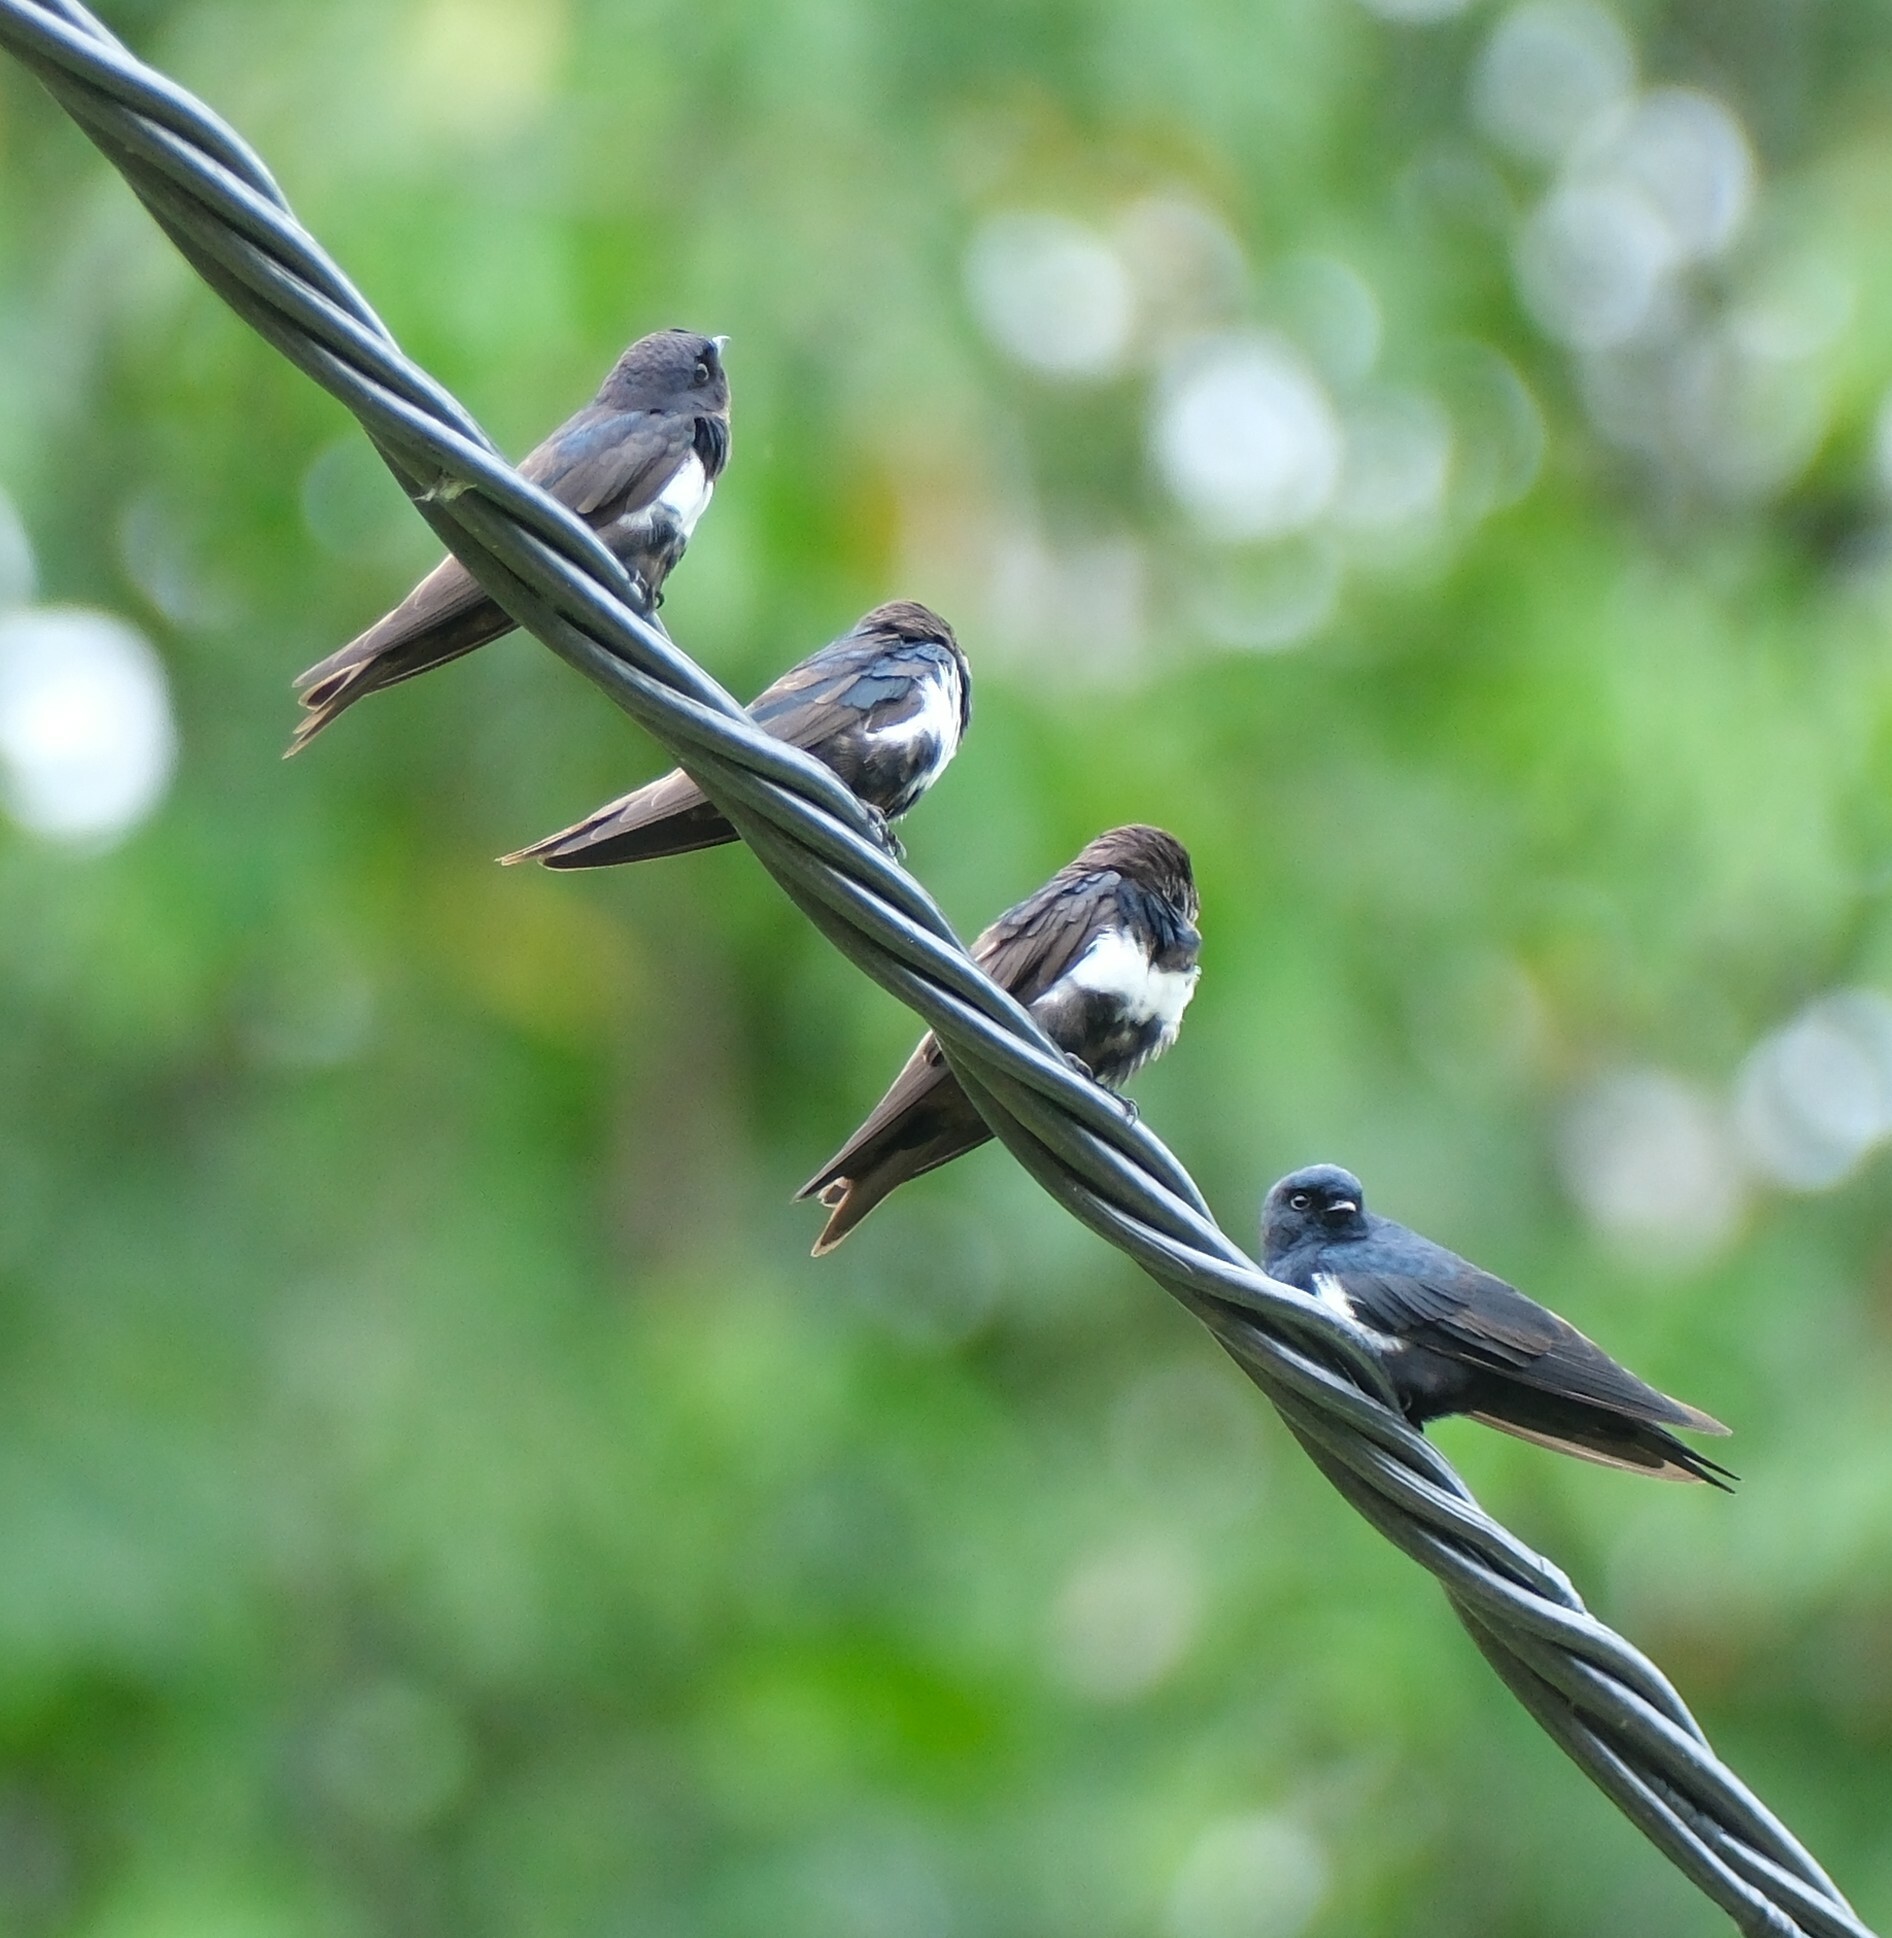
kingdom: Animalia
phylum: Chordata
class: Aves
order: Passeriformes
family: Hirundinidae
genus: Atticora
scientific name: Atticora fasciata
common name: White-banded swallow
